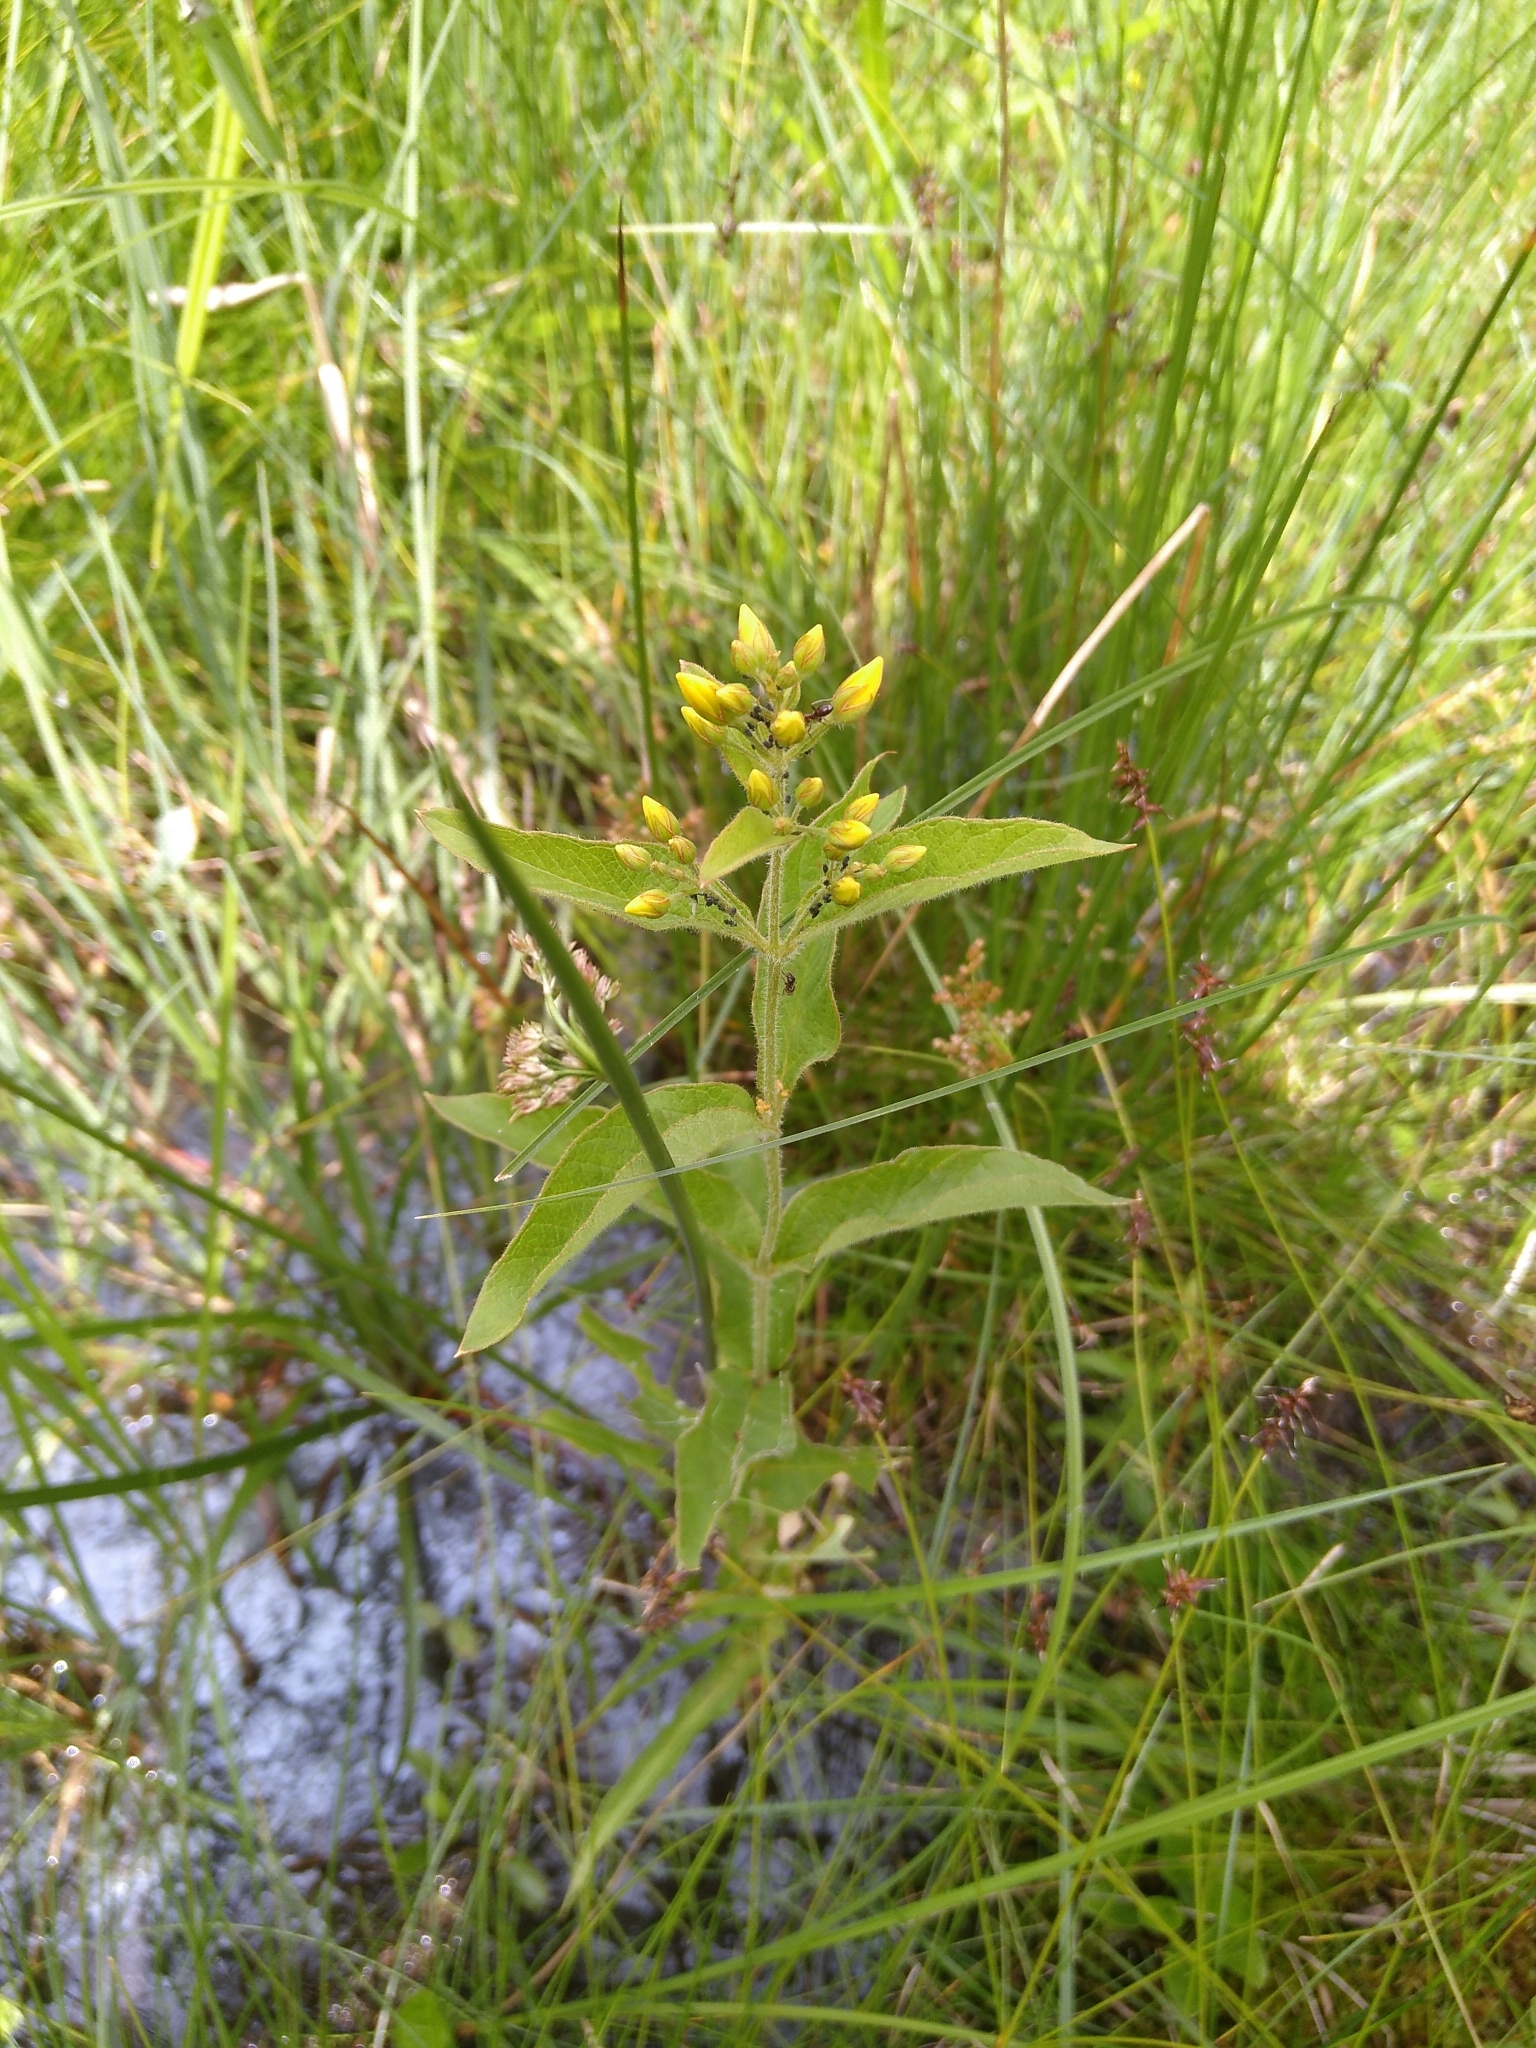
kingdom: Plantae
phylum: Tracheophyta
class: Magnoliopsida
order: Ericales
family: Primulaceae
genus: Lysimachia
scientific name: Lysimachia vulgaris
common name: Yellow loosestrife
